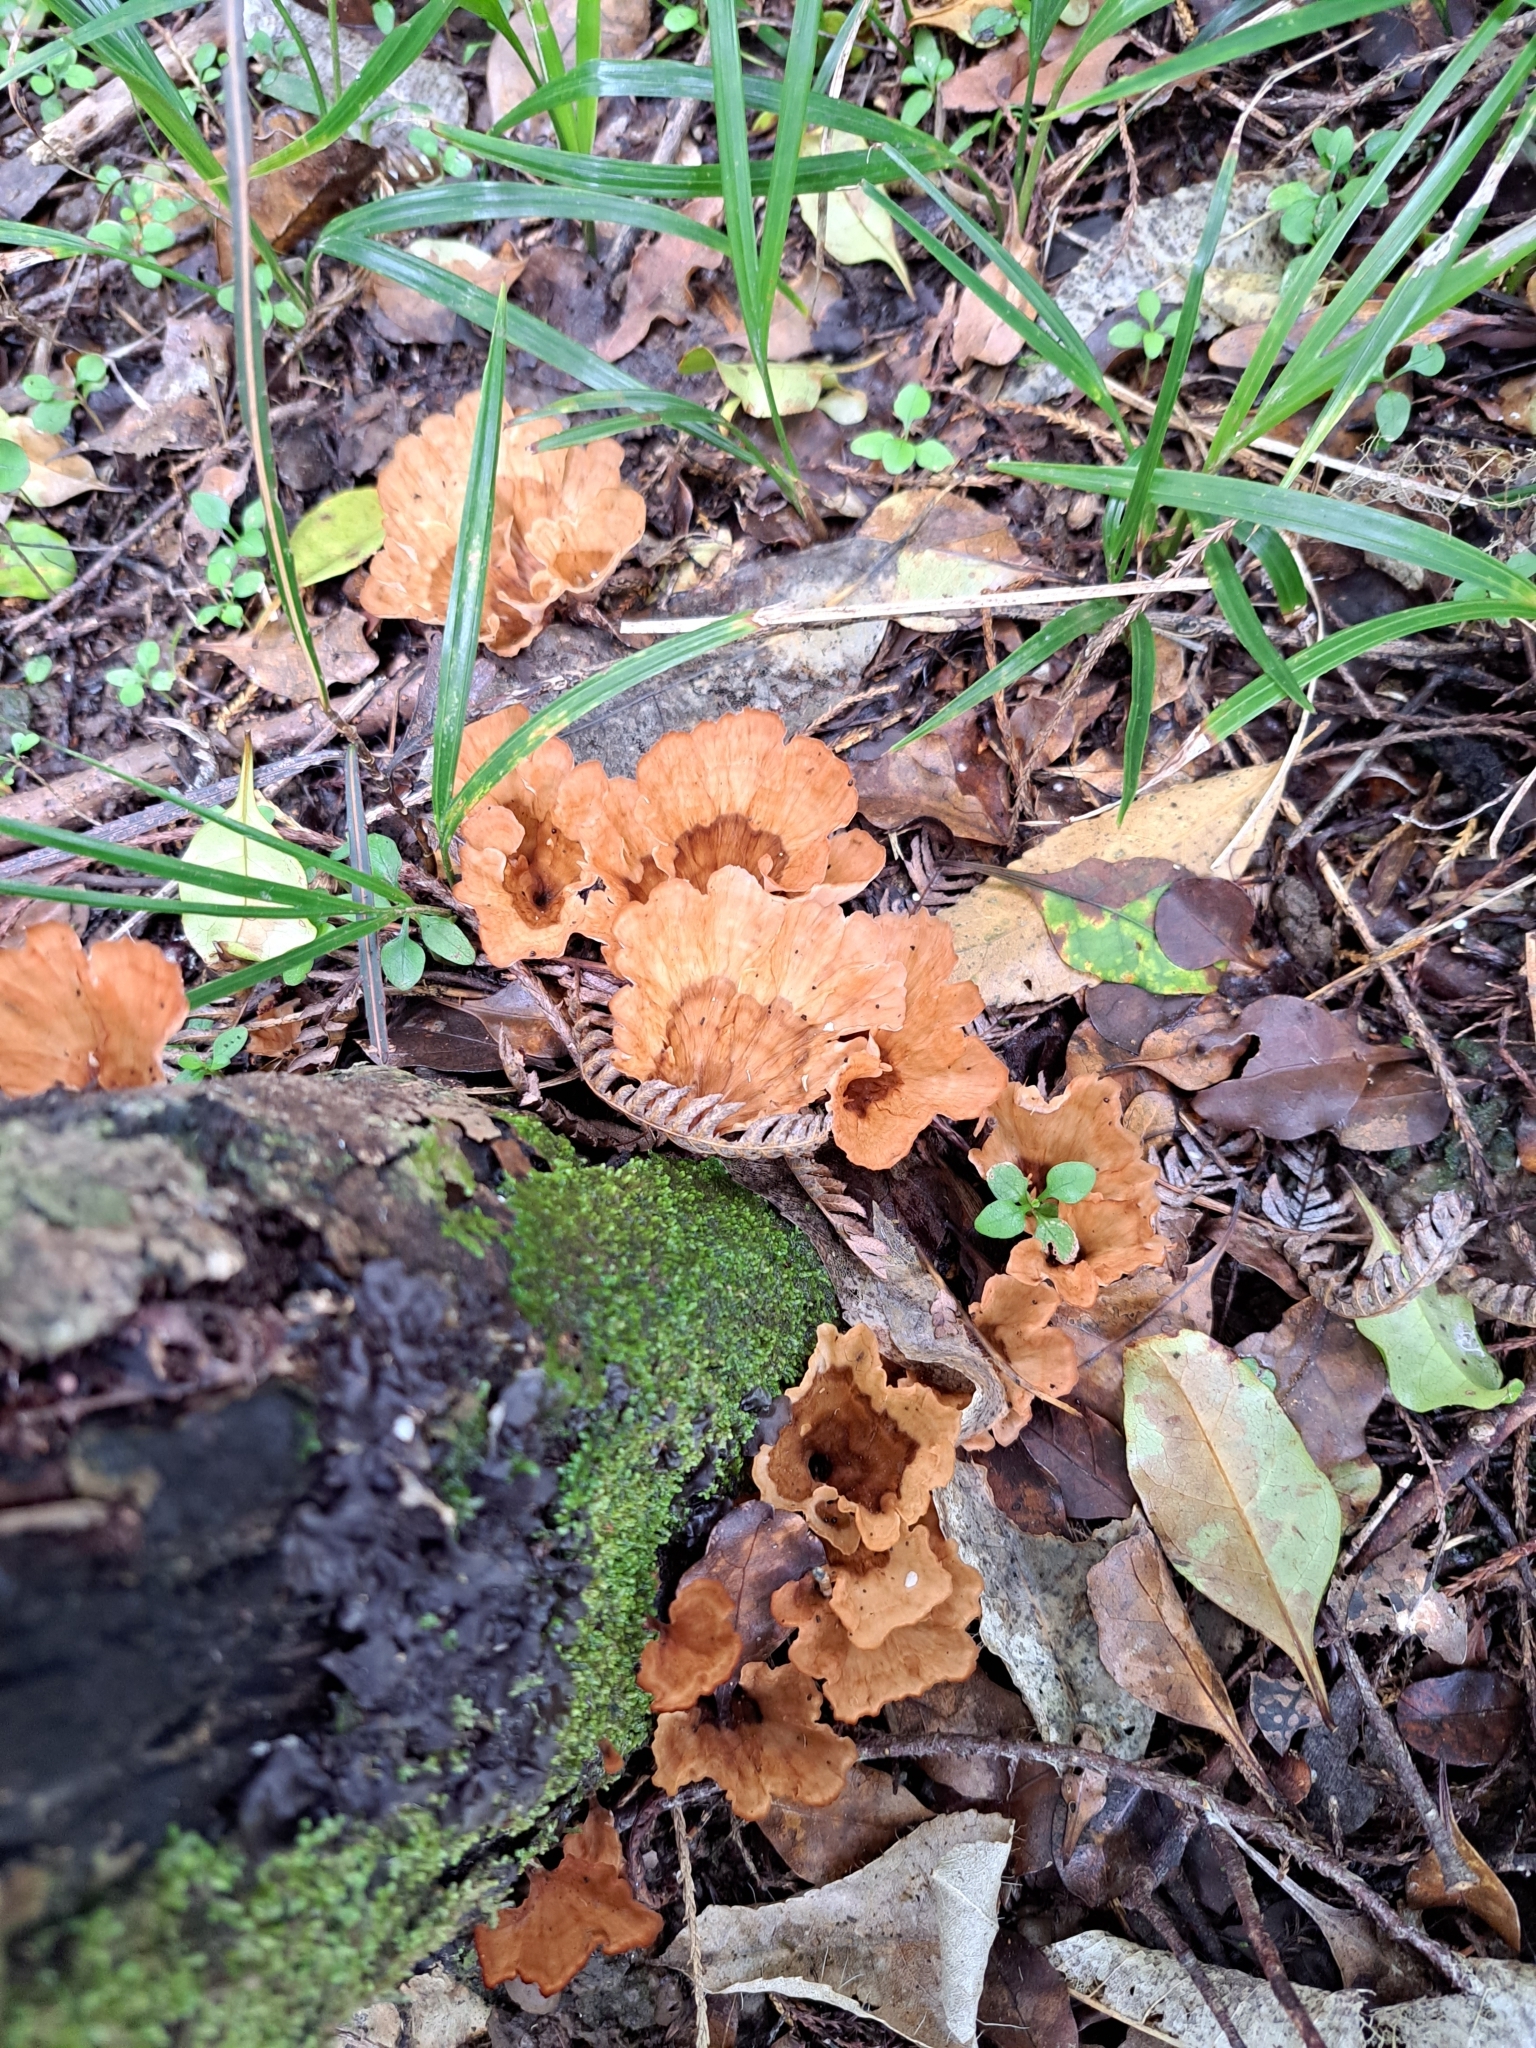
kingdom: Fungi
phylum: Basidiomycota
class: Agaricomycetes
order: Polyporales
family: Podoscyphaceae
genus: Podoscypha
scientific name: Podoscypha petalodes
